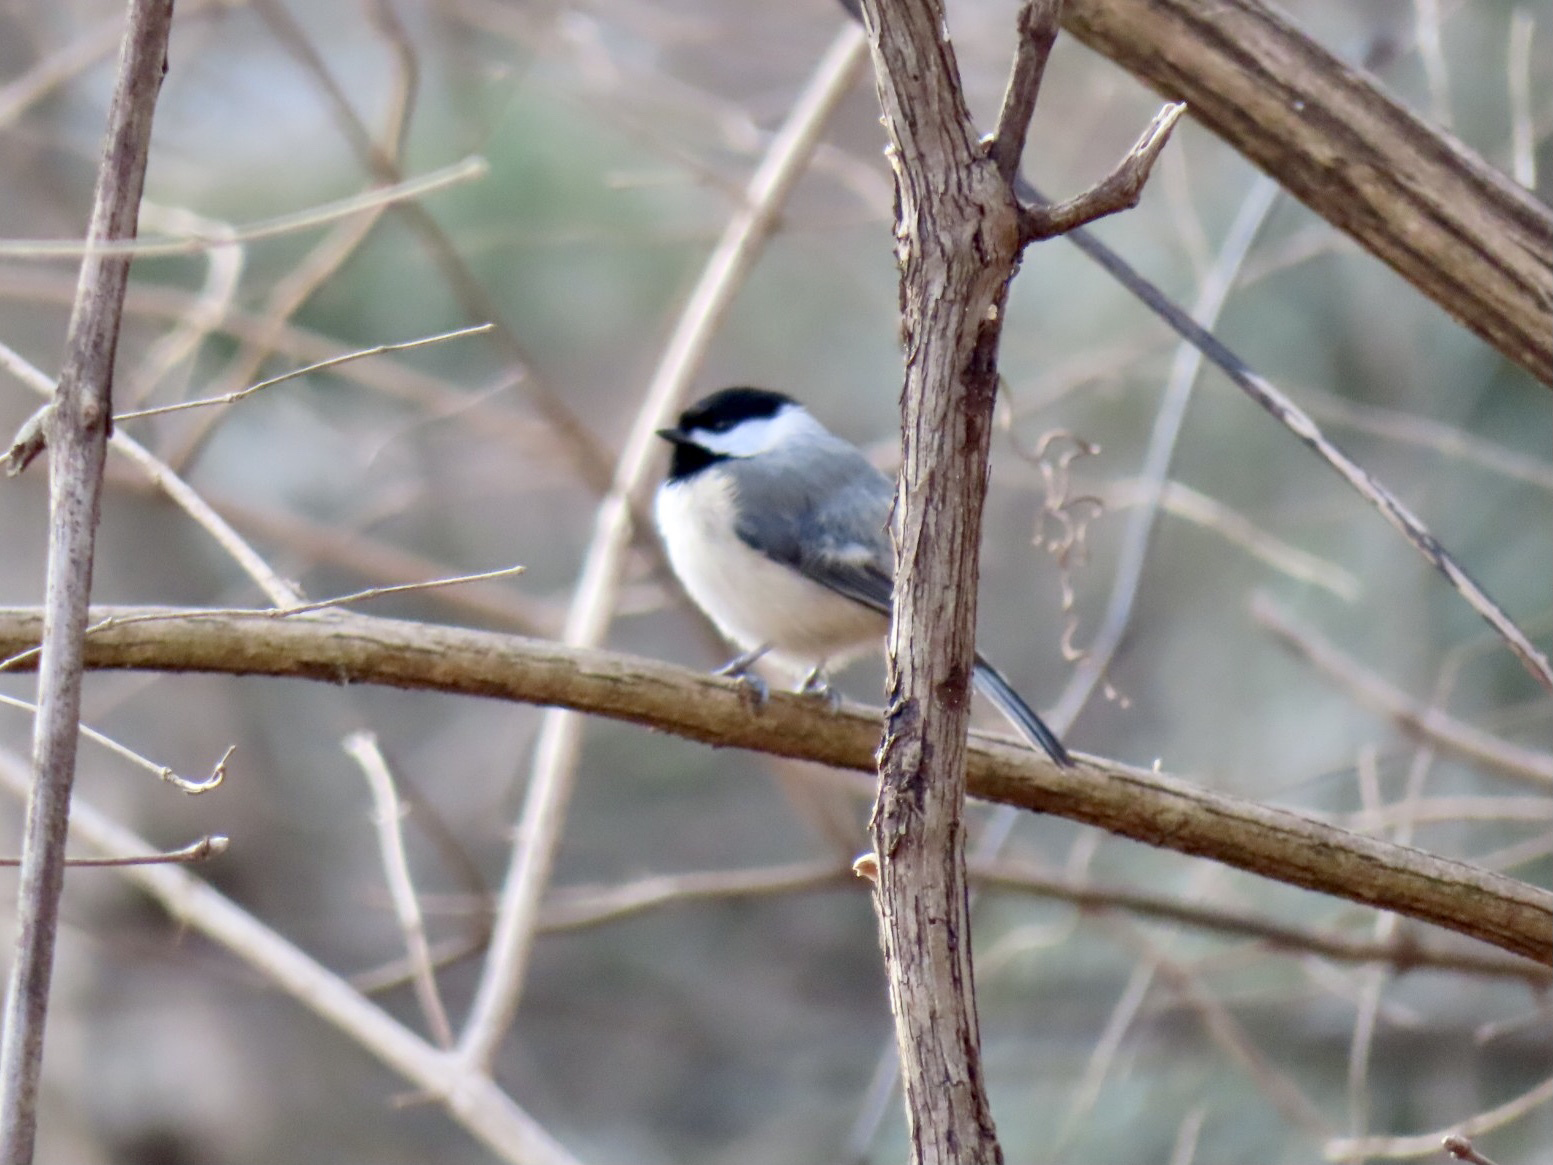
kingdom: Animalia
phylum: Chordata
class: Aves
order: Passeriformes
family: Paridae
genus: Poecile
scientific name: Poecile carolinensis
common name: Carolina chickadee
